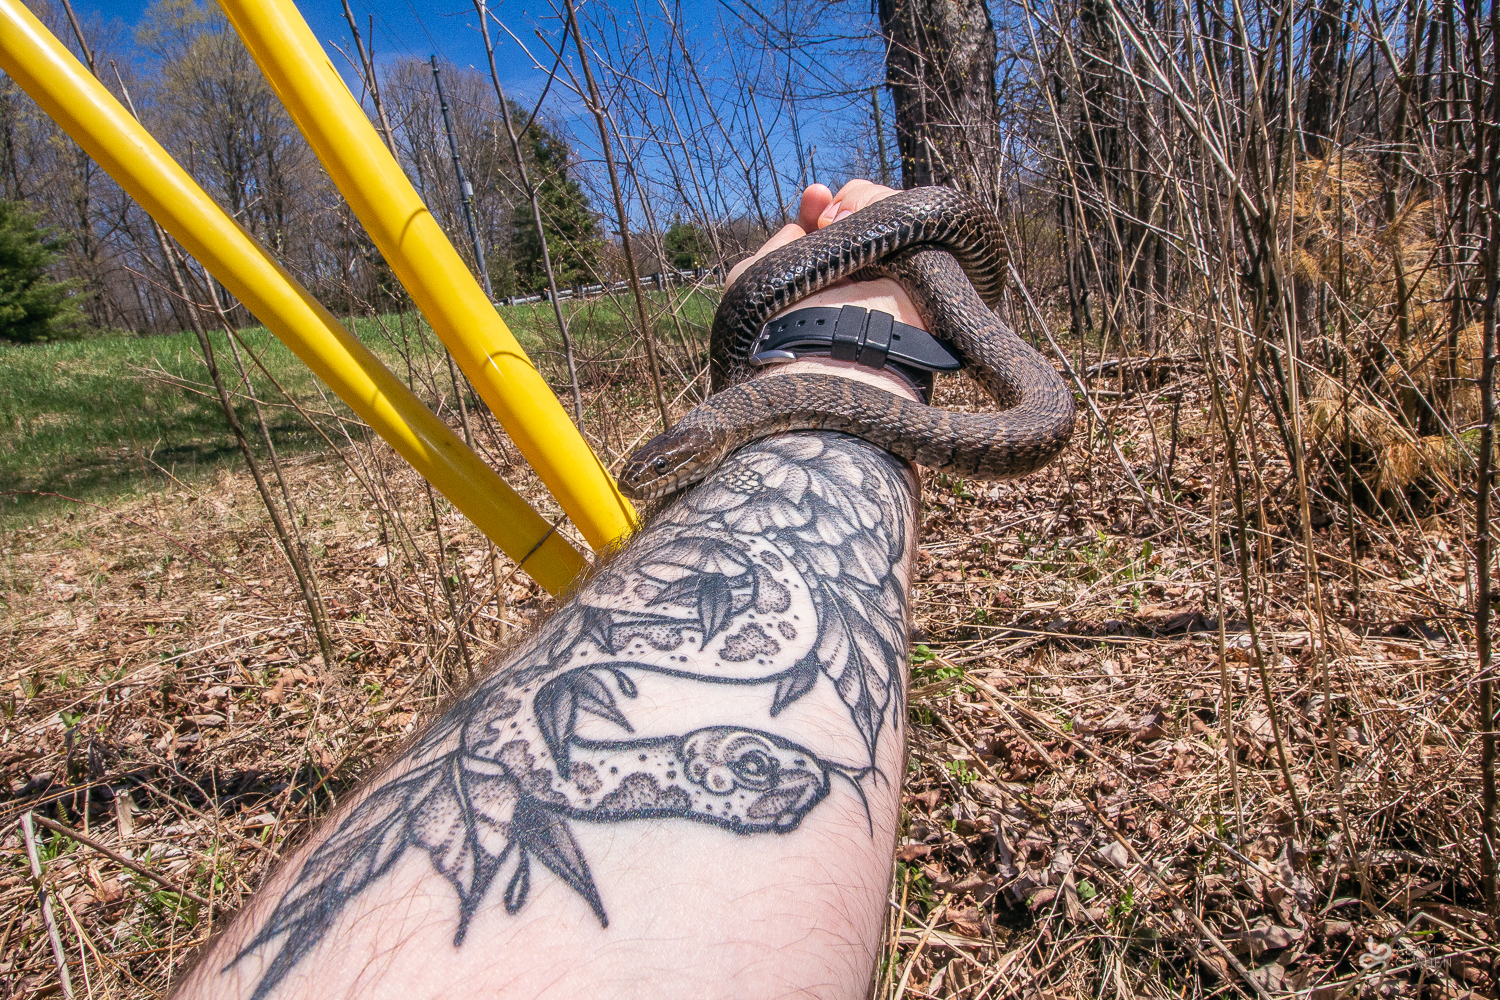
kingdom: Animalia
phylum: Chordata
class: Squamata
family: Colubridae
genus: Nerodia
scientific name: Nerodia sipedon
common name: Northern water snake
